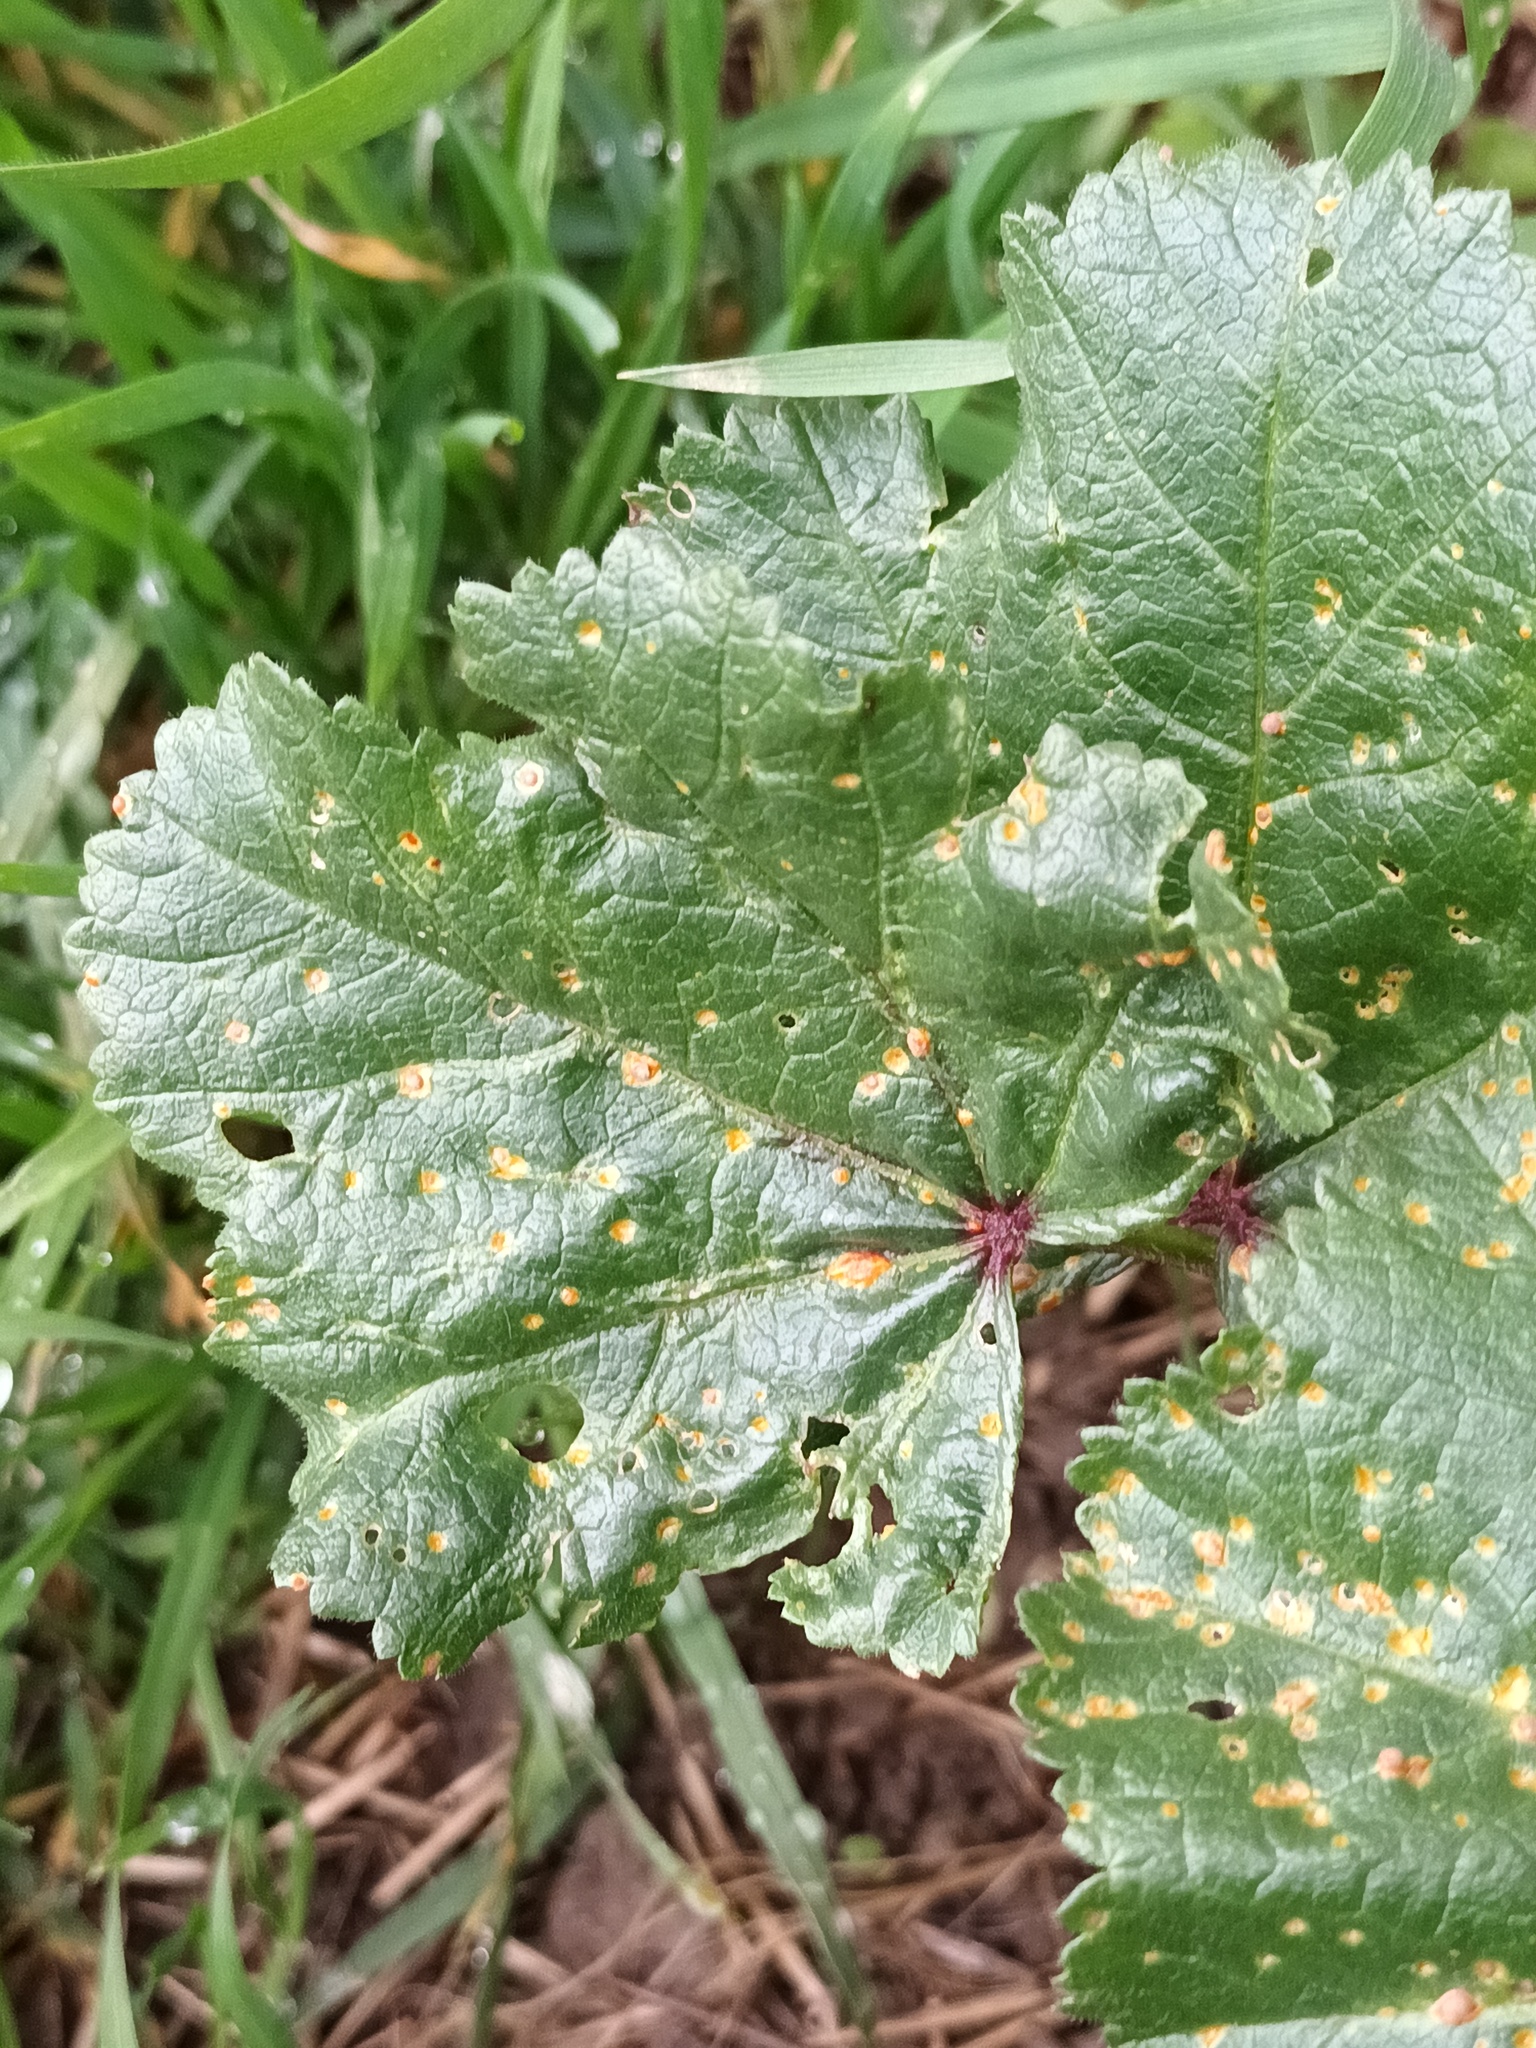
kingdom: Fungi
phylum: Basidiomycota
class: Pucciniomycetes
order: Pucciniales
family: Pucciniaceae
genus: Puccinia
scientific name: Puccinia malvacearum
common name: Hollyhock rust
